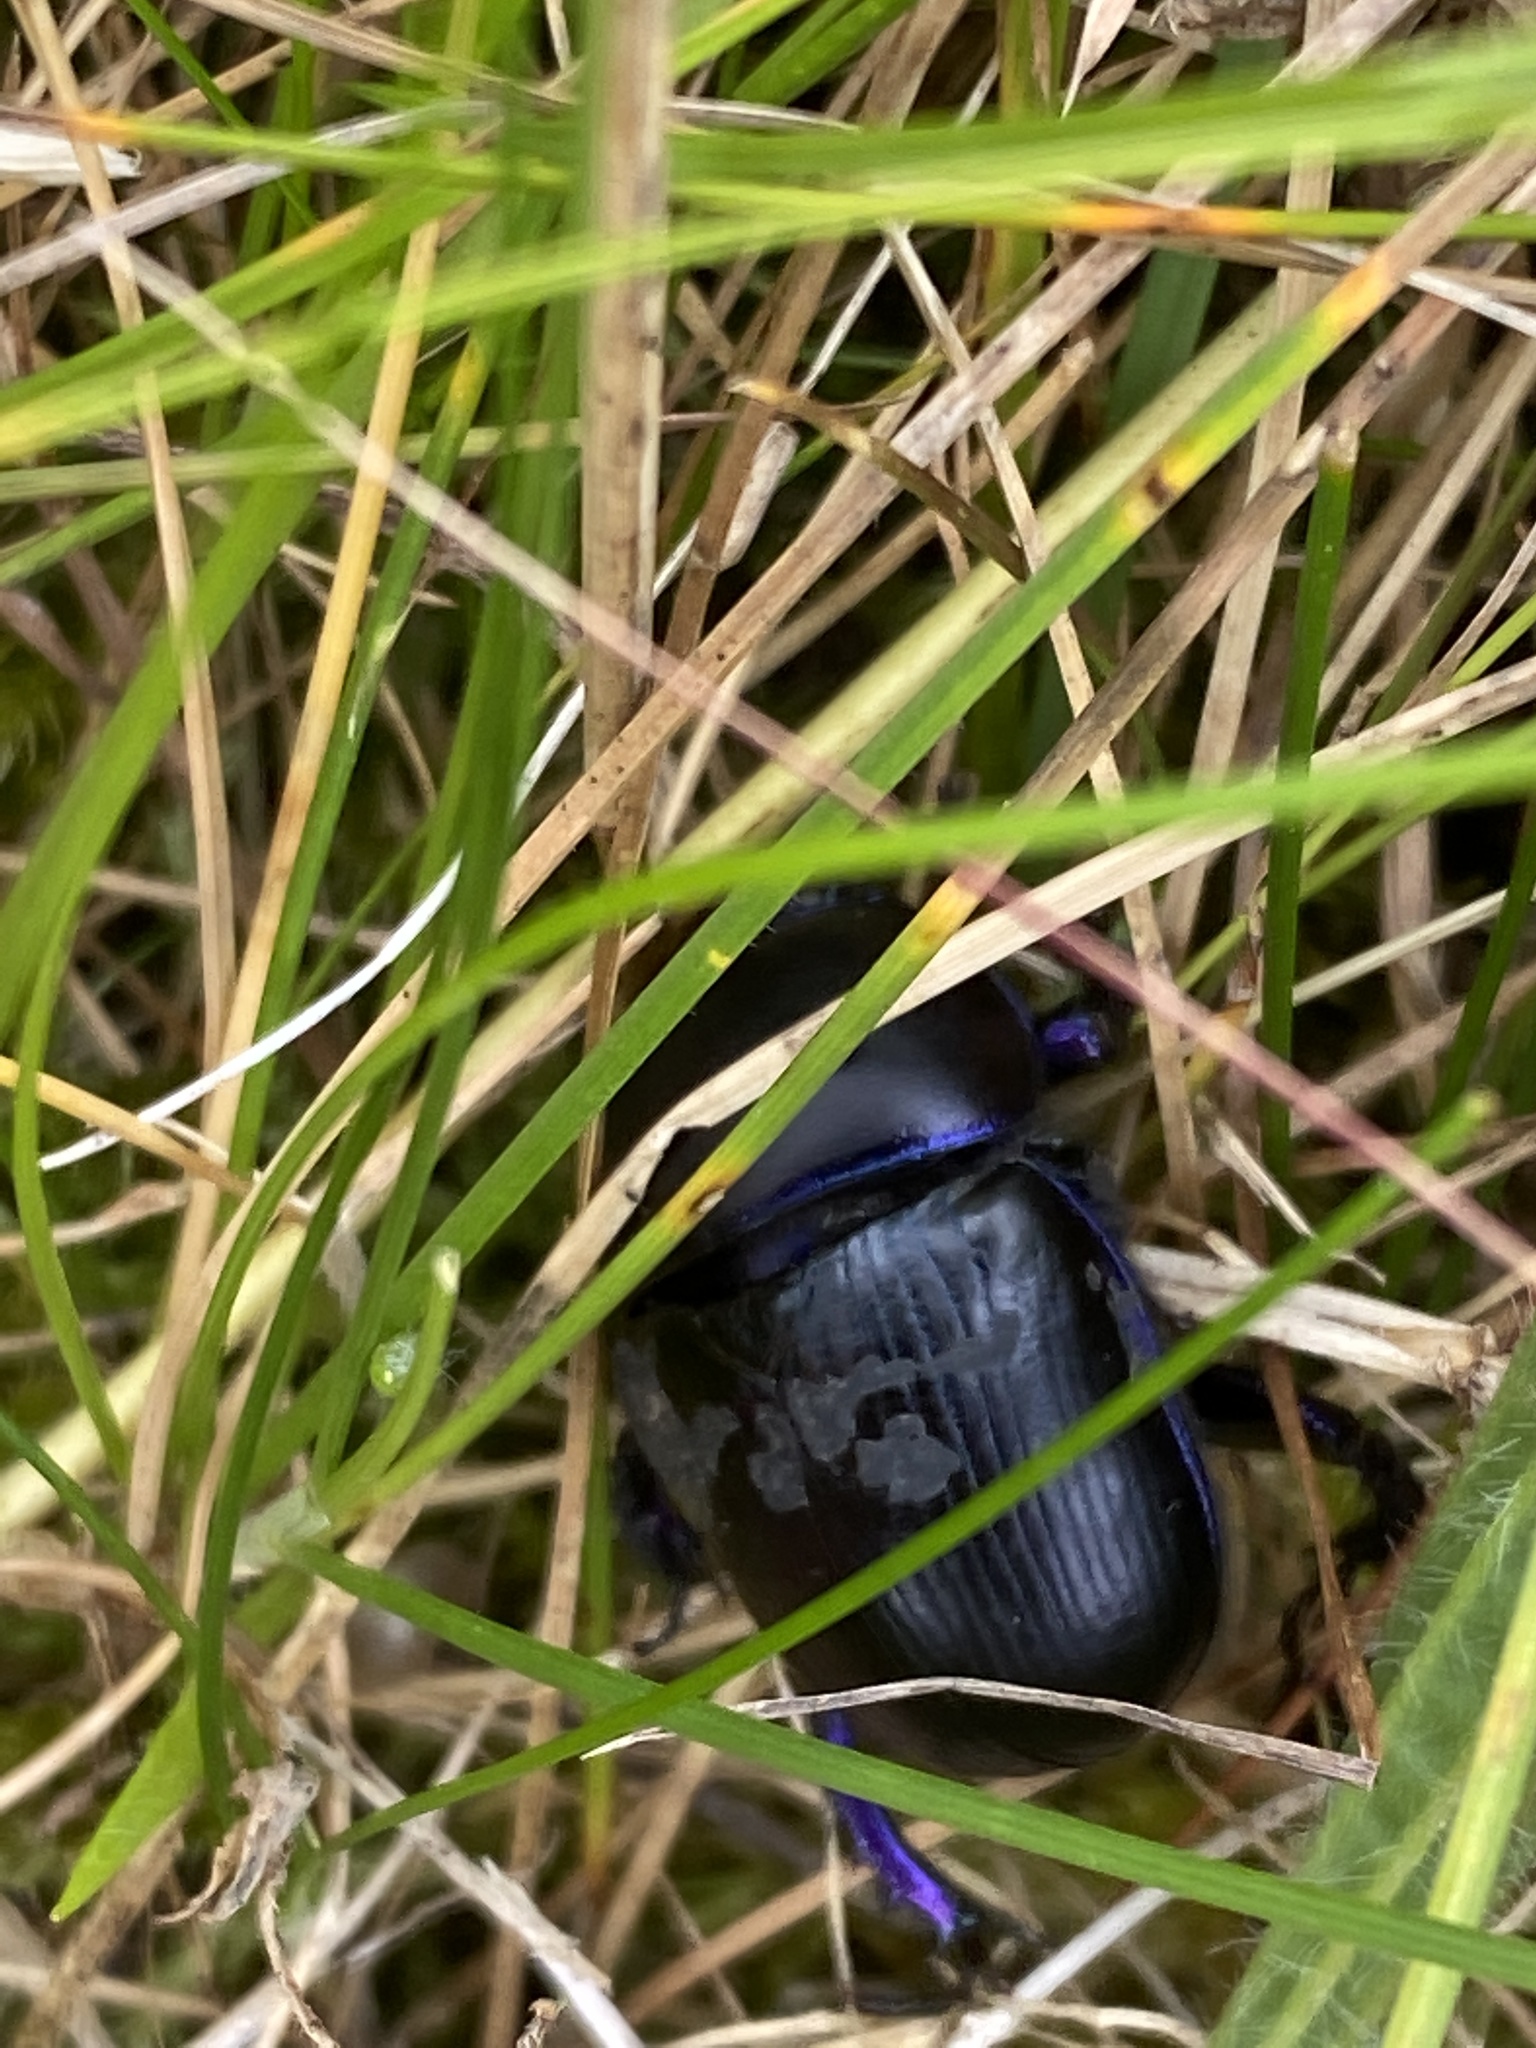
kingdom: Animalia
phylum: Arthropoda
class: Insecta
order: Coleoptera
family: Geotrupidae
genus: Anoplotrupes
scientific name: Anoplotrupes stercorosus
